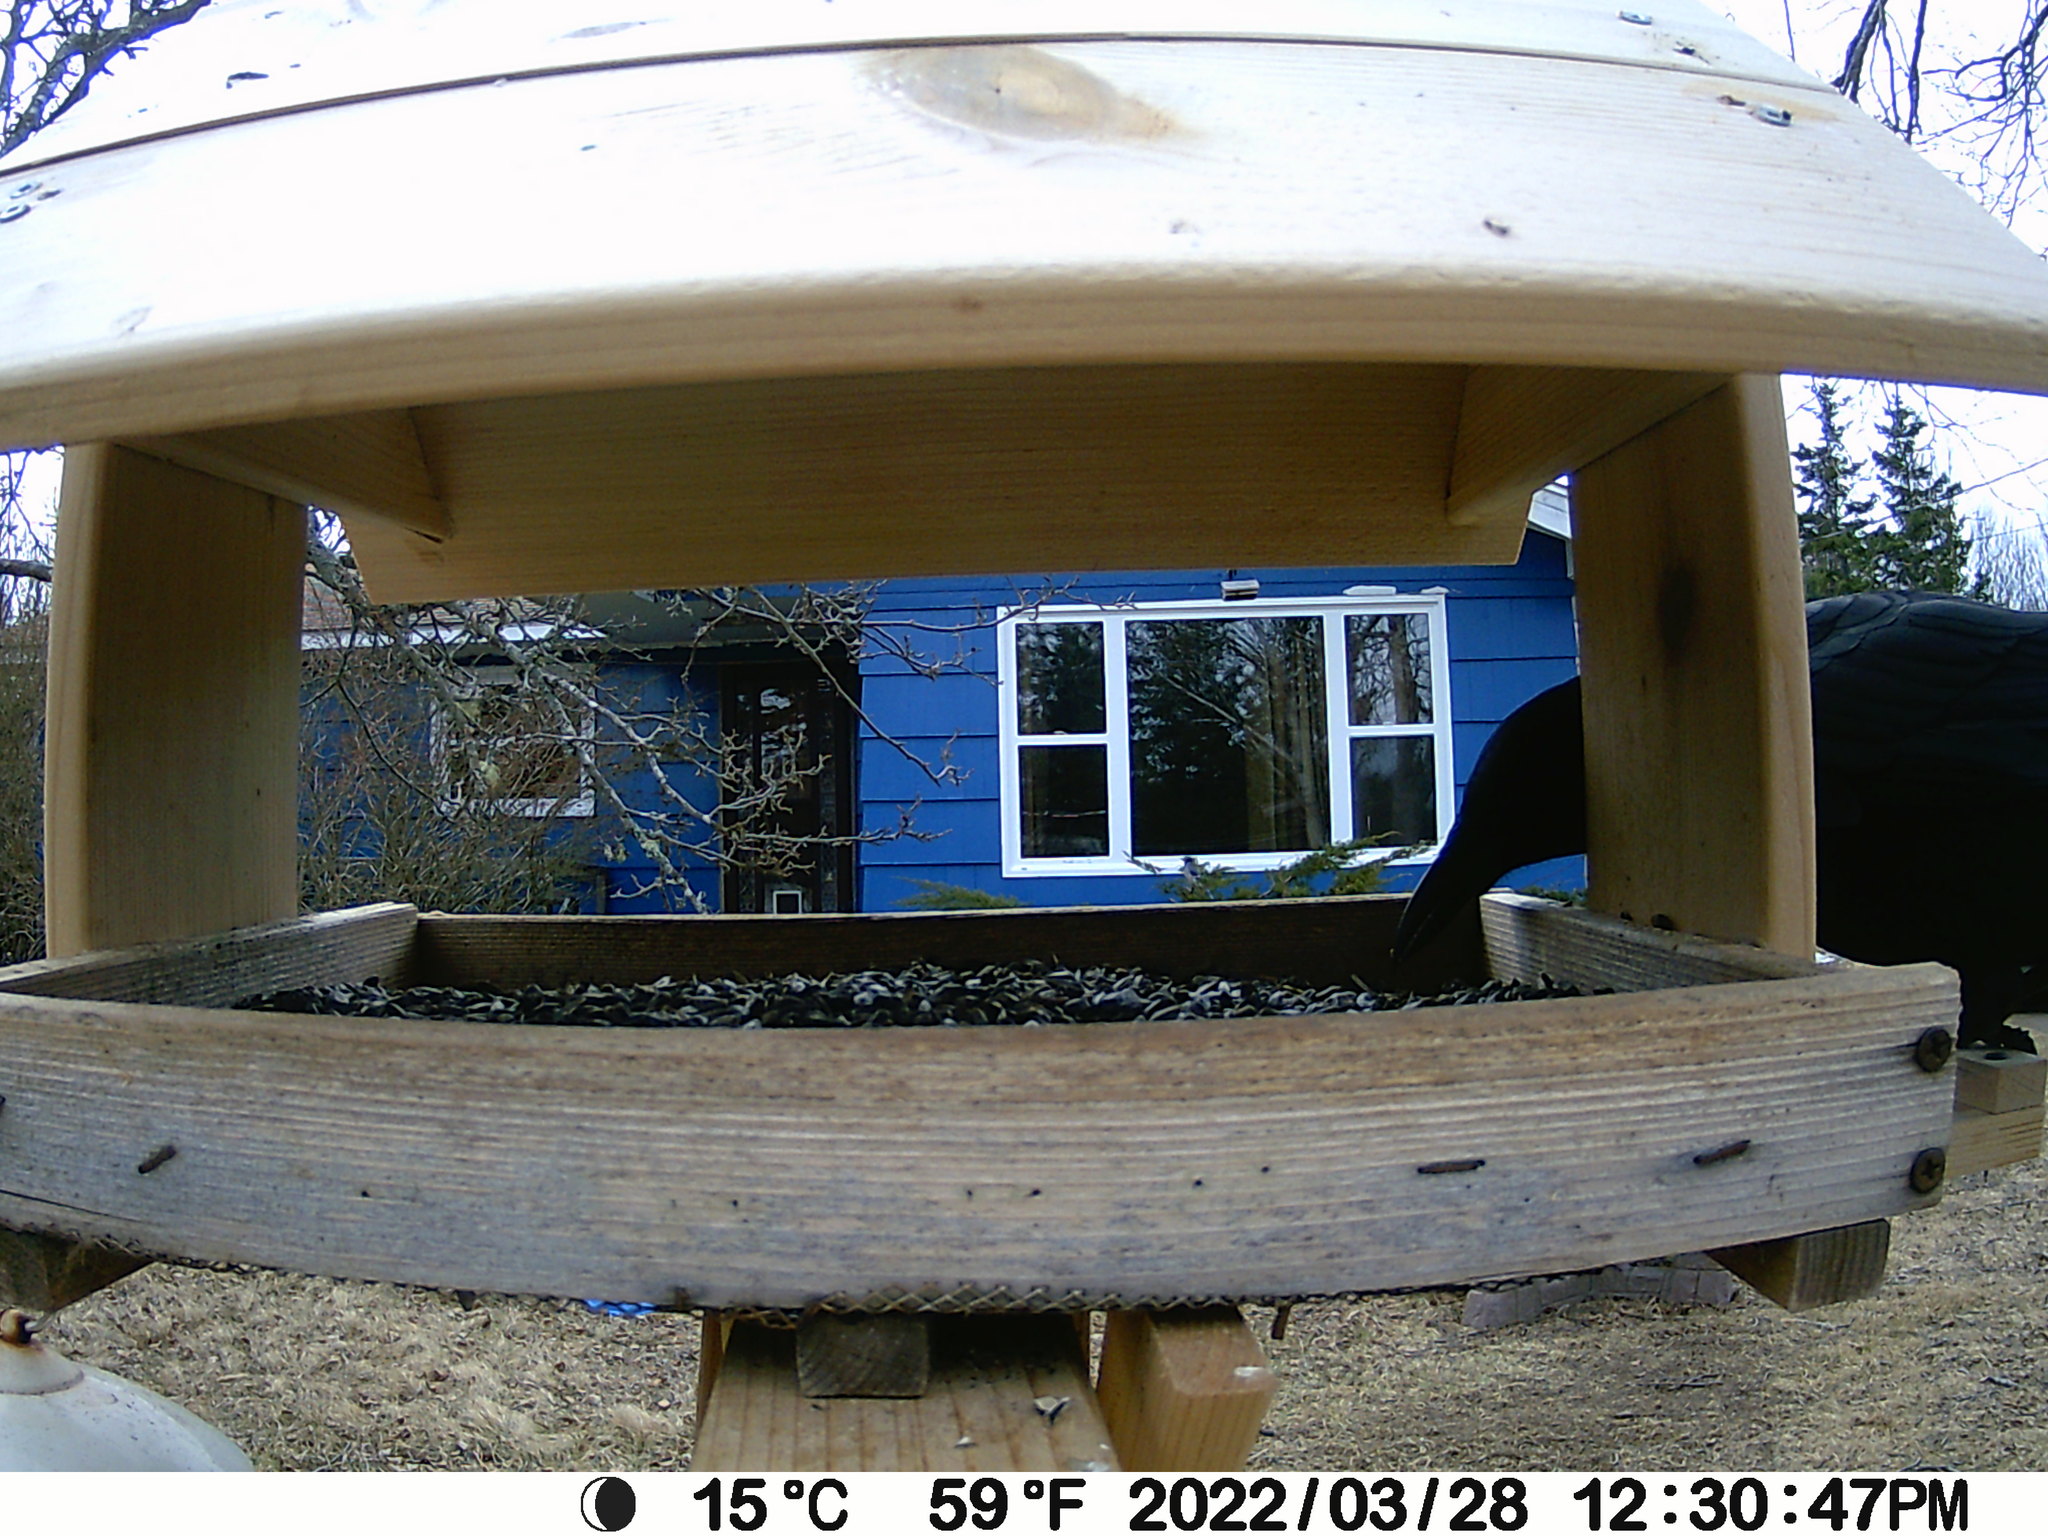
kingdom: Animalia
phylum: Chordata
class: Aves
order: Passeriformes
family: Corvidae
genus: Corvus
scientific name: Corvus brachyrhynchos
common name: American crow
